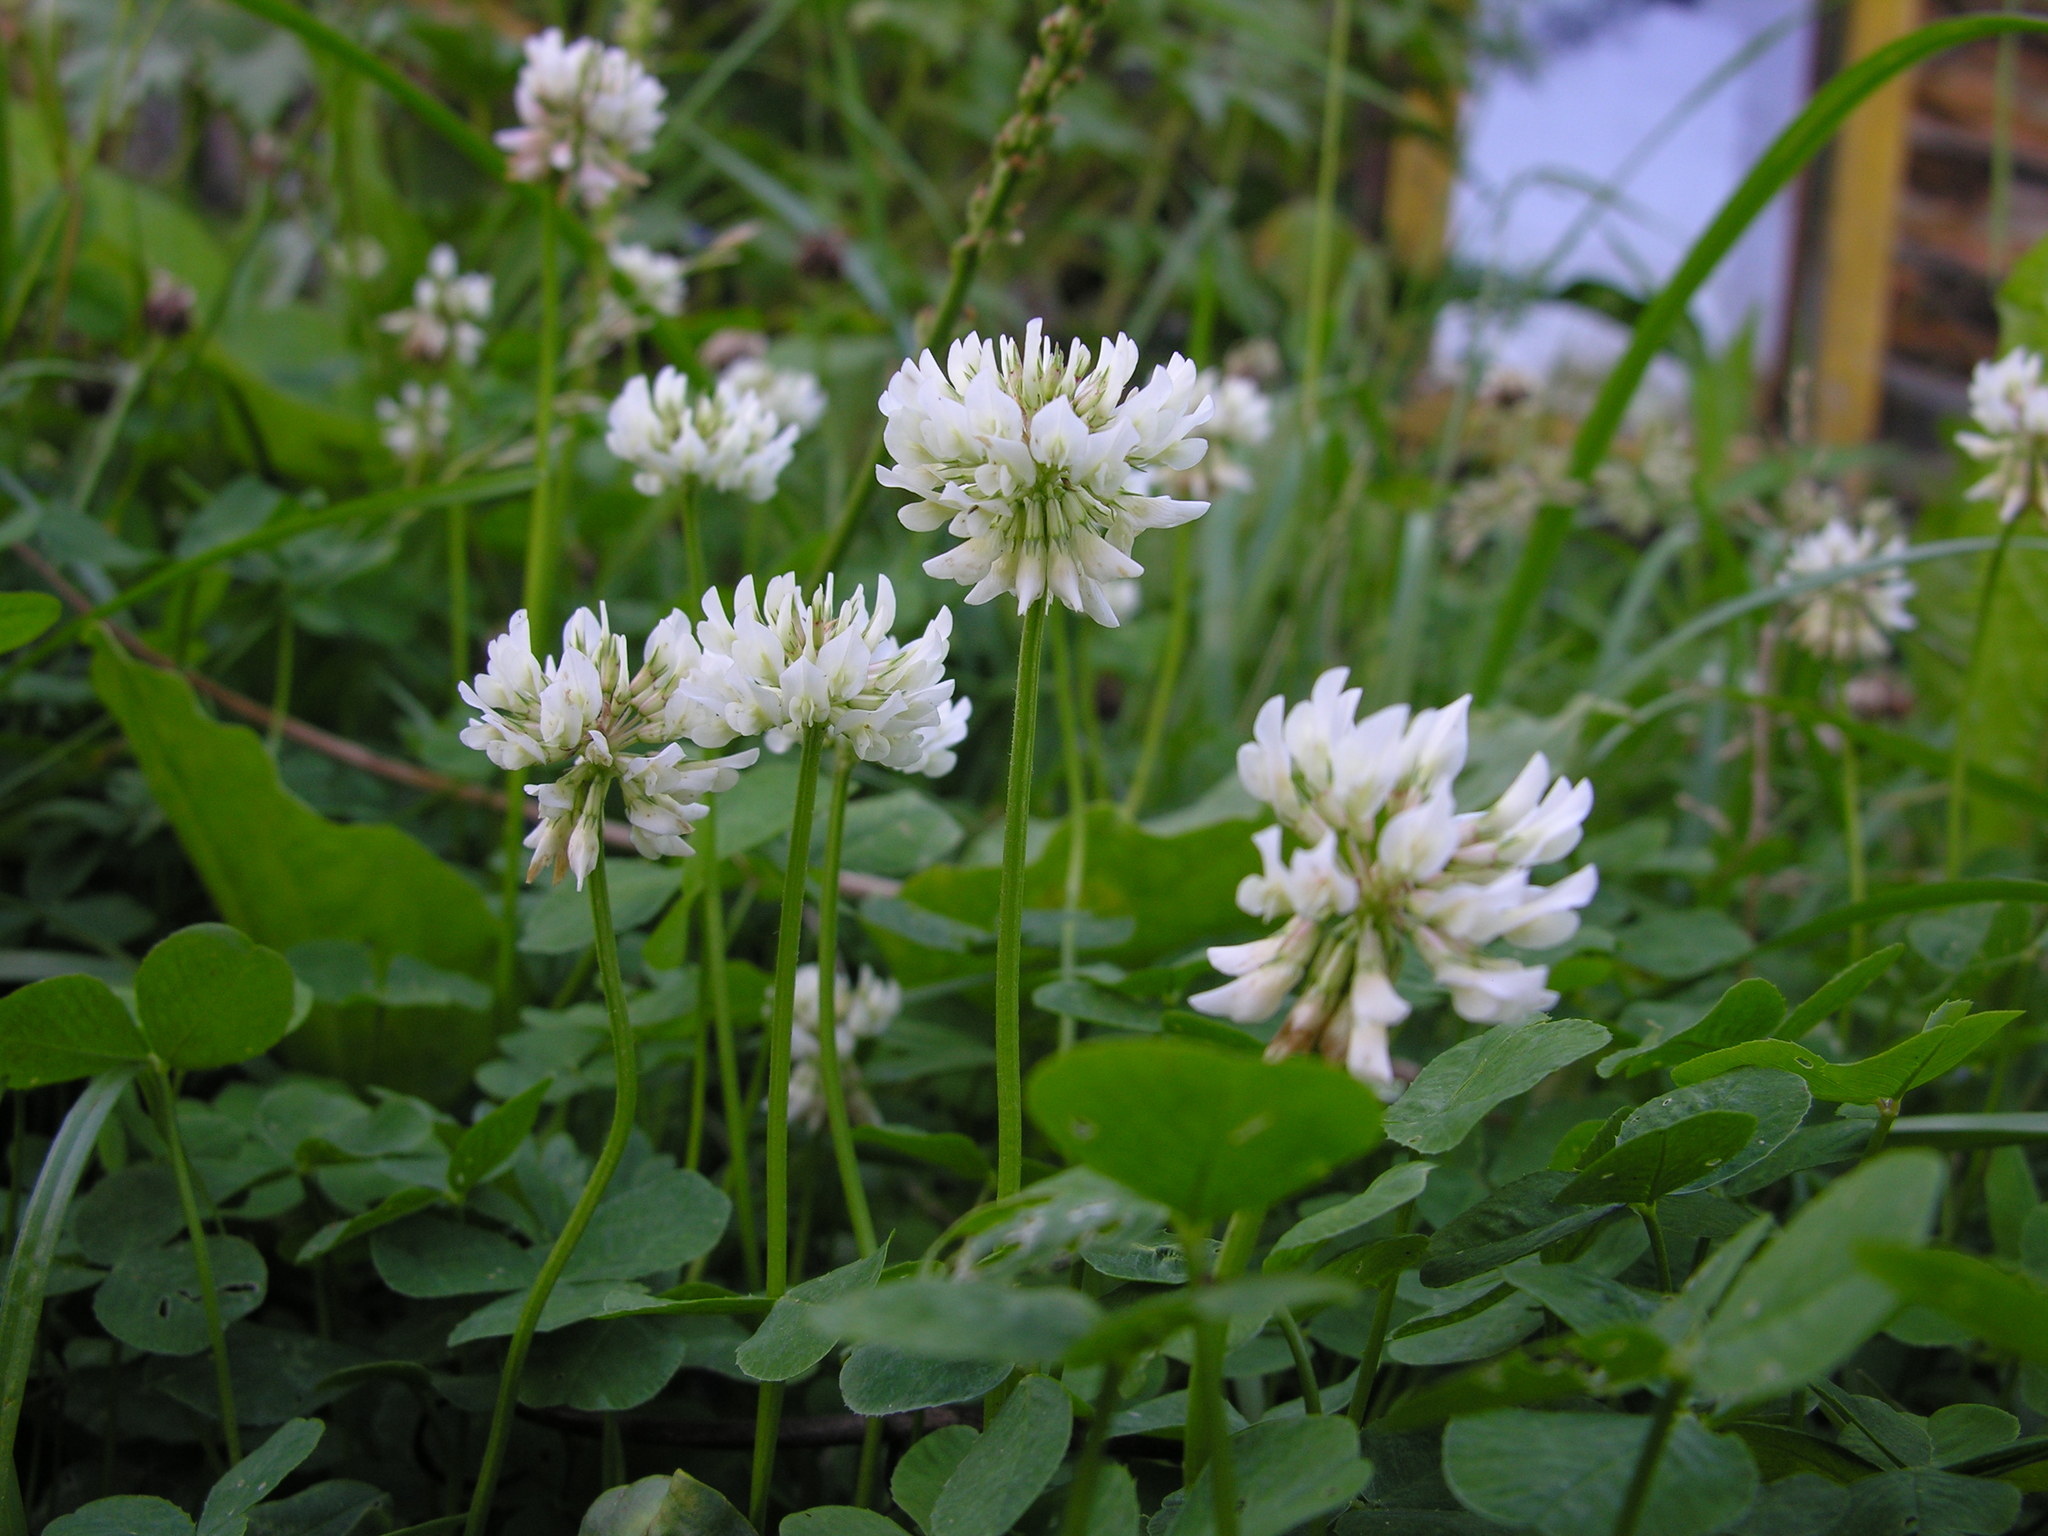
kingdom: Plantae
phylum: Tracheophyta
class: Magnoliopsida
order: Fabales
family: Fabaceae
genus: Trifolium
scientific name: Trifolium repens
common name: White clover
